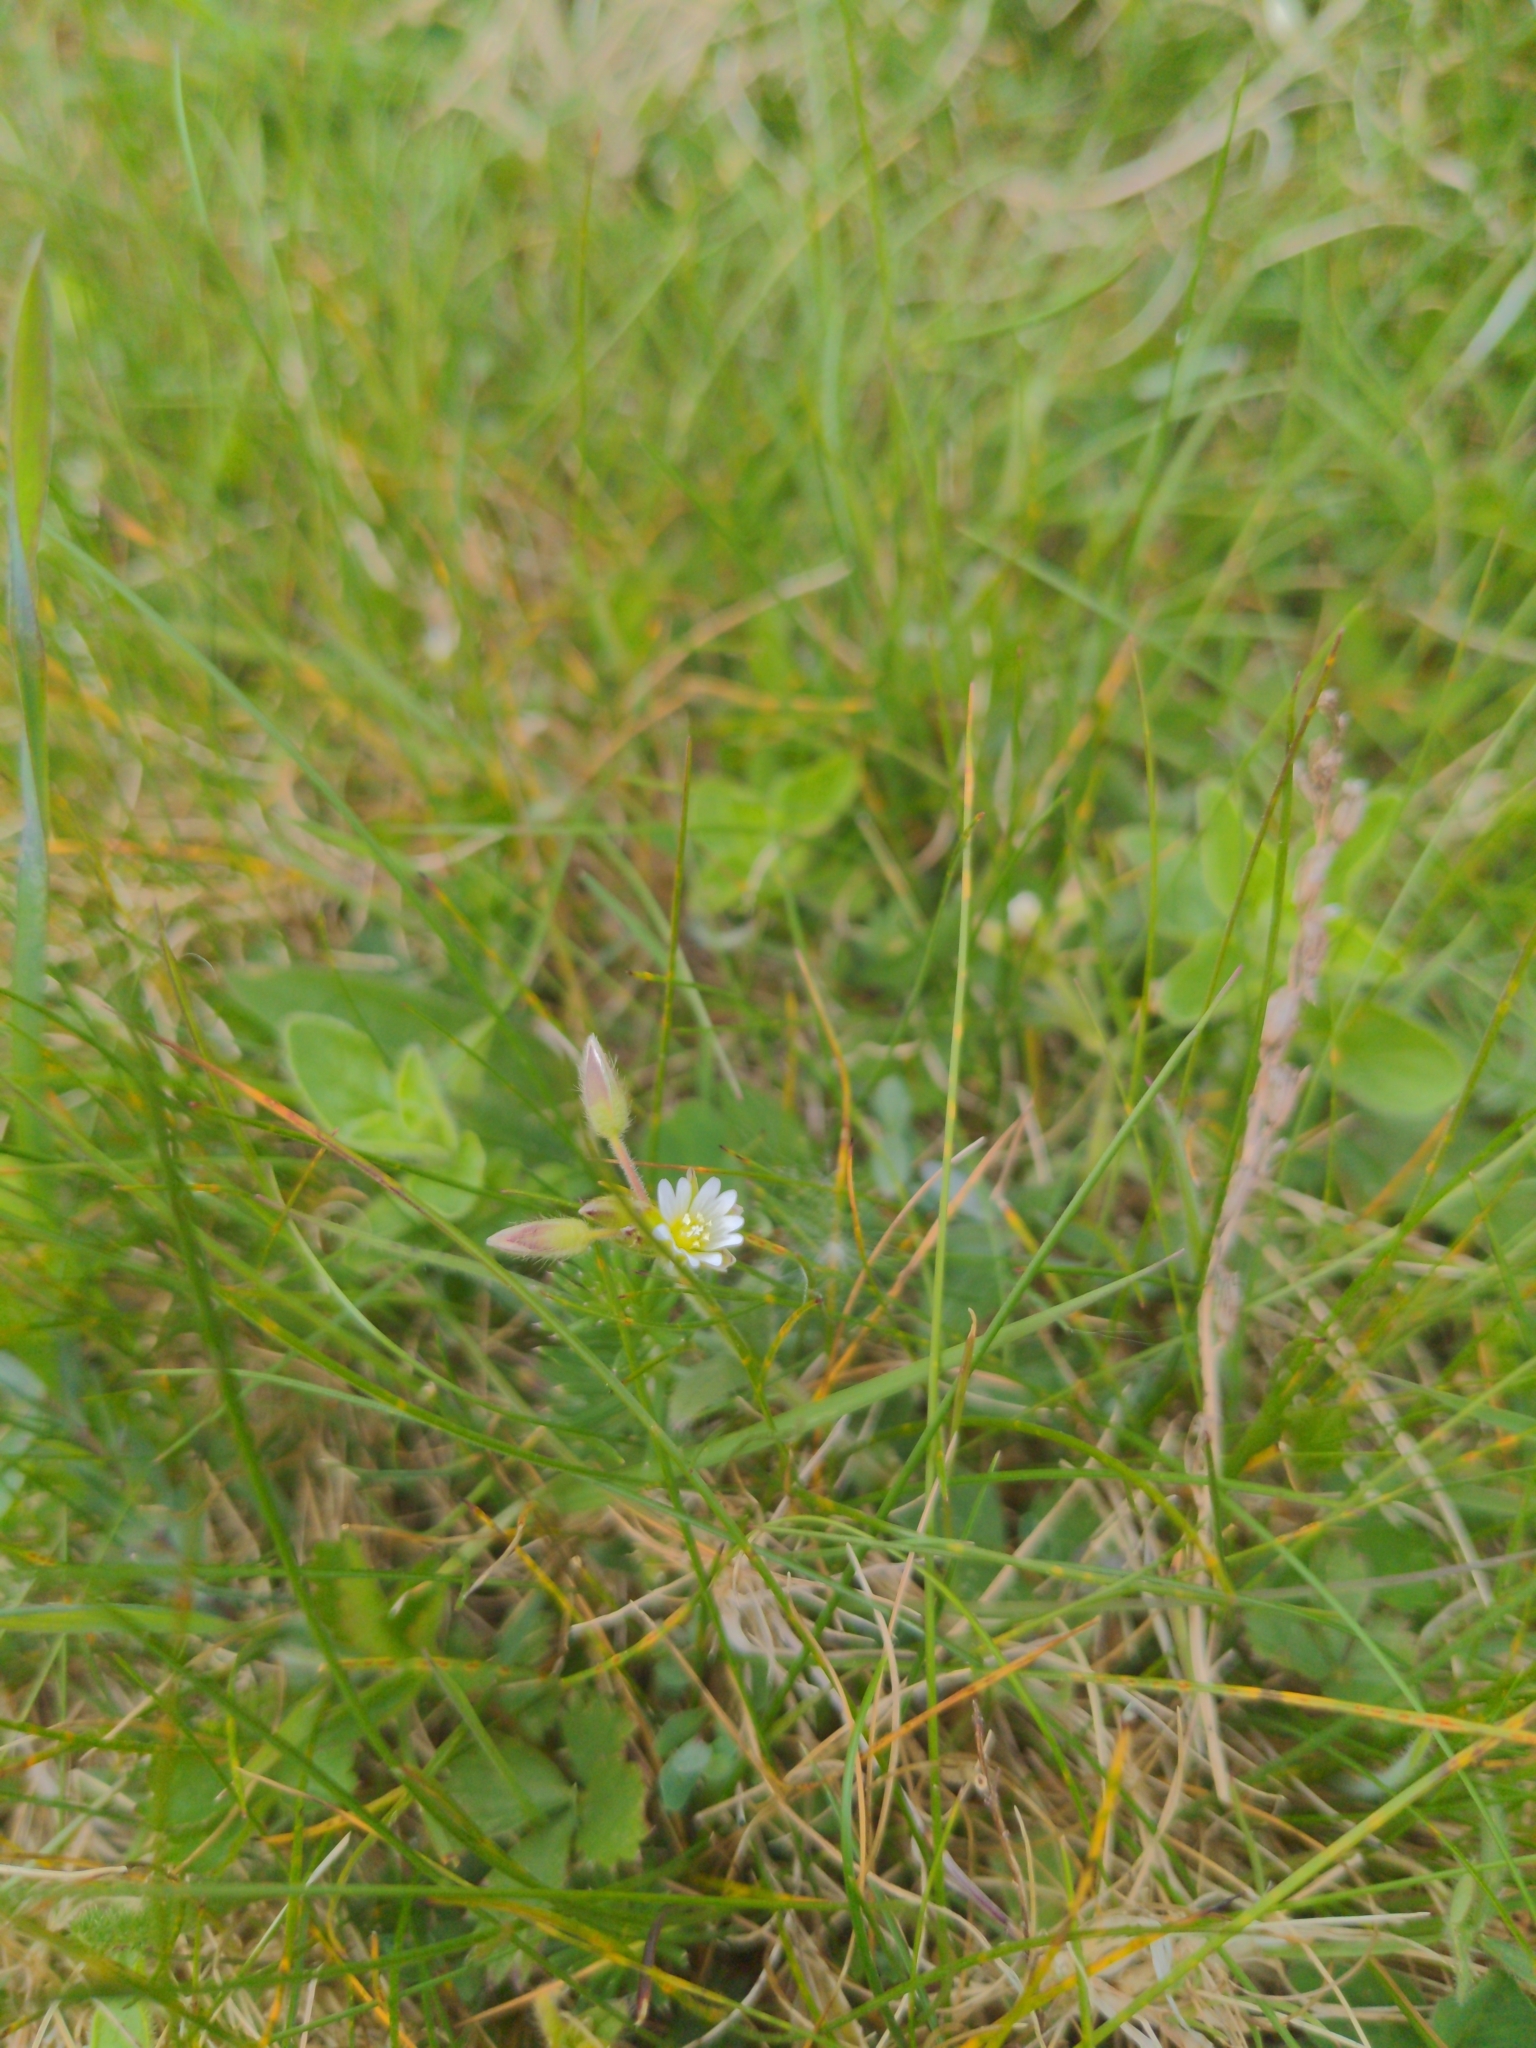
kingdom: Plantae
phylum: Tracheophyta
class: Magnoliopsida
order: Caryophyllales
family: Caryophyllaceae
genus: Cerastium
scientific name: Cerastium fontanum
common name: Common mouse-ear
